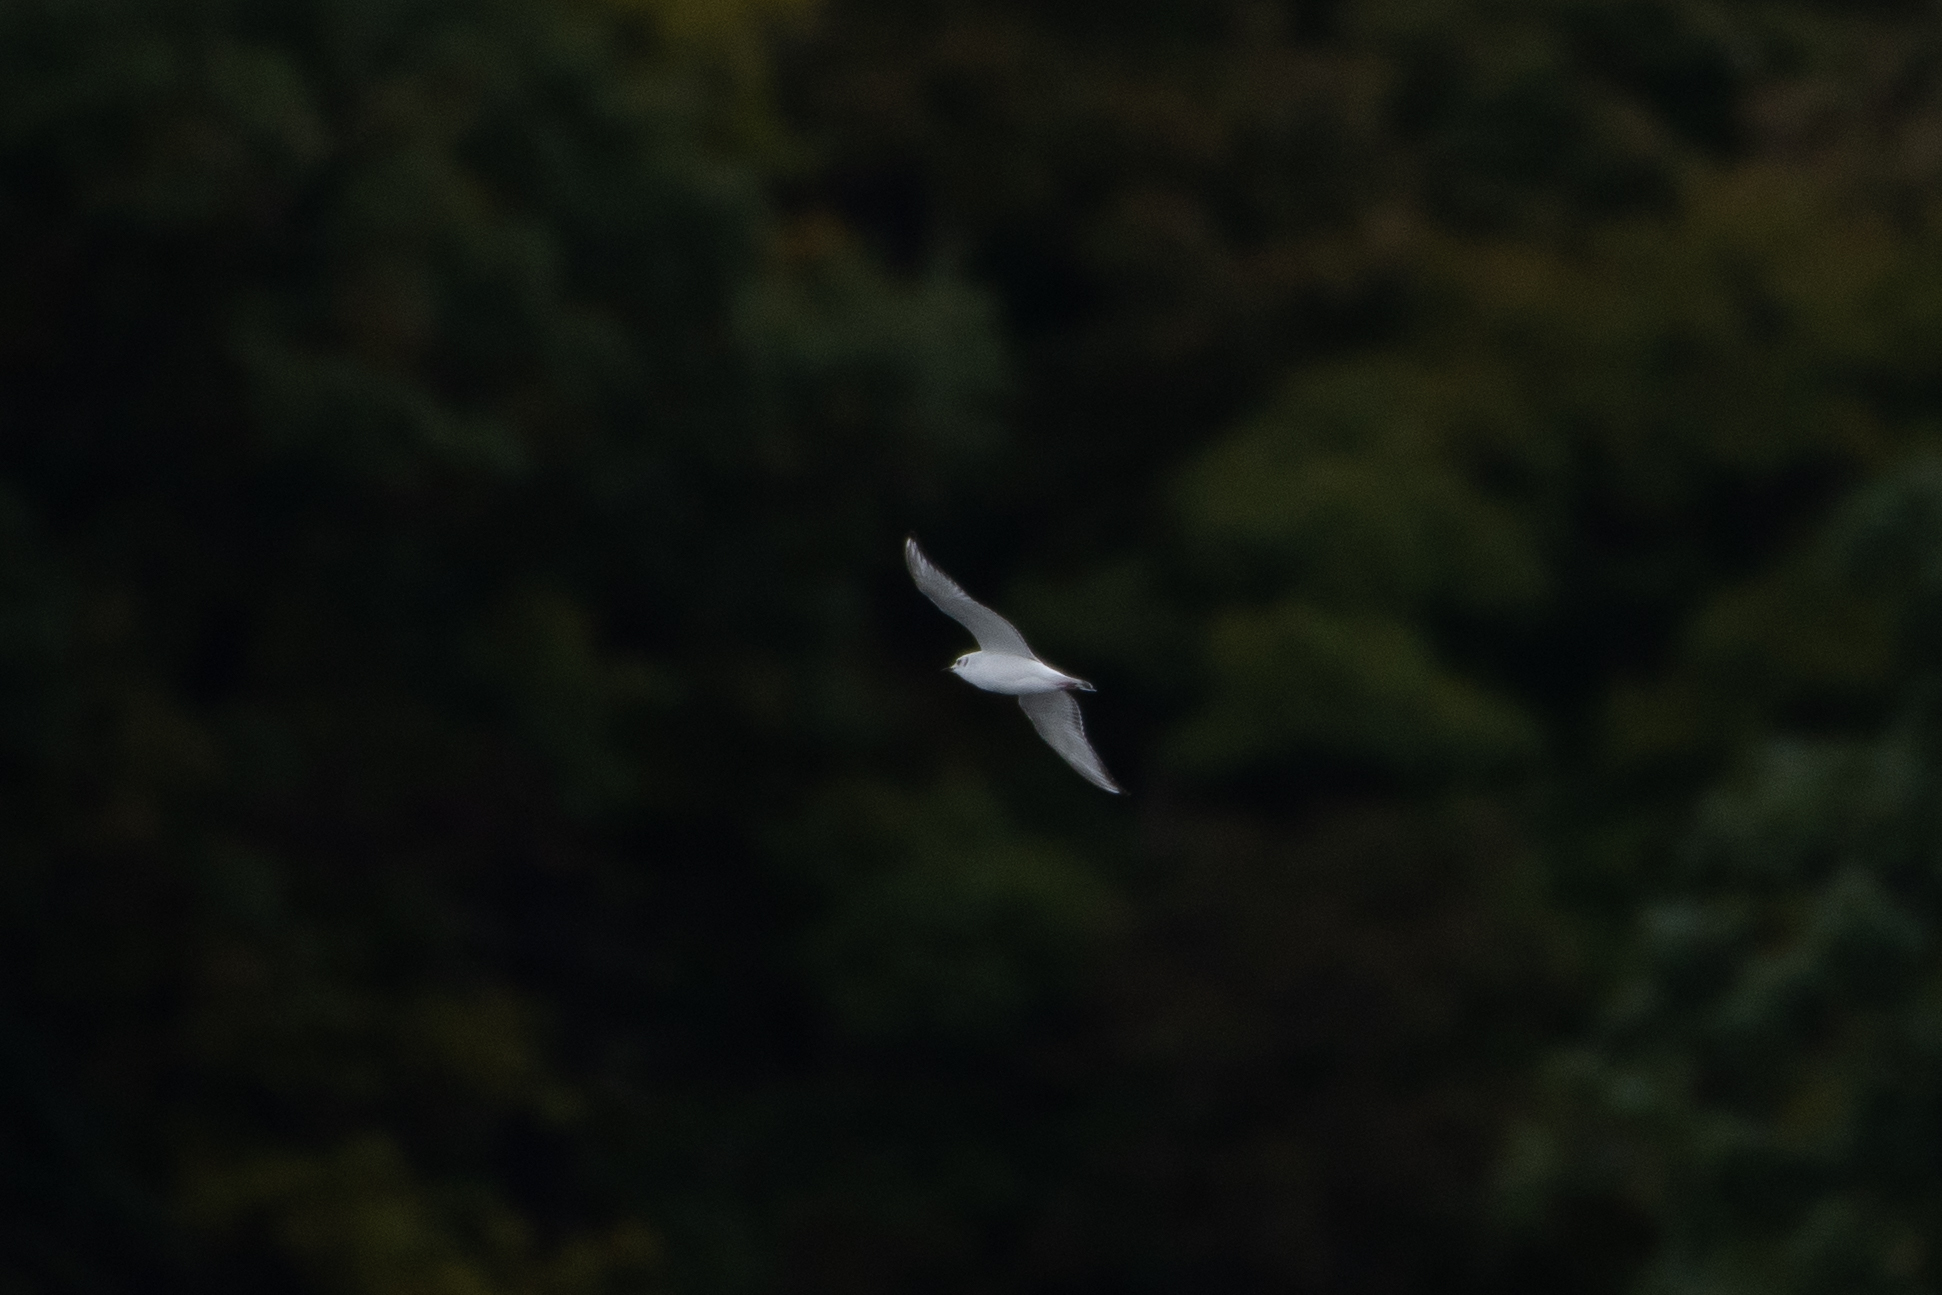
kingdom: Animalia
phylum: Chordata
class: Aves
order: Charadriiformes
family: Laridae
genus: Chroicocephalus
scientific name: Chroicocephalus philadelphia
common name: Bonaparte's gull
